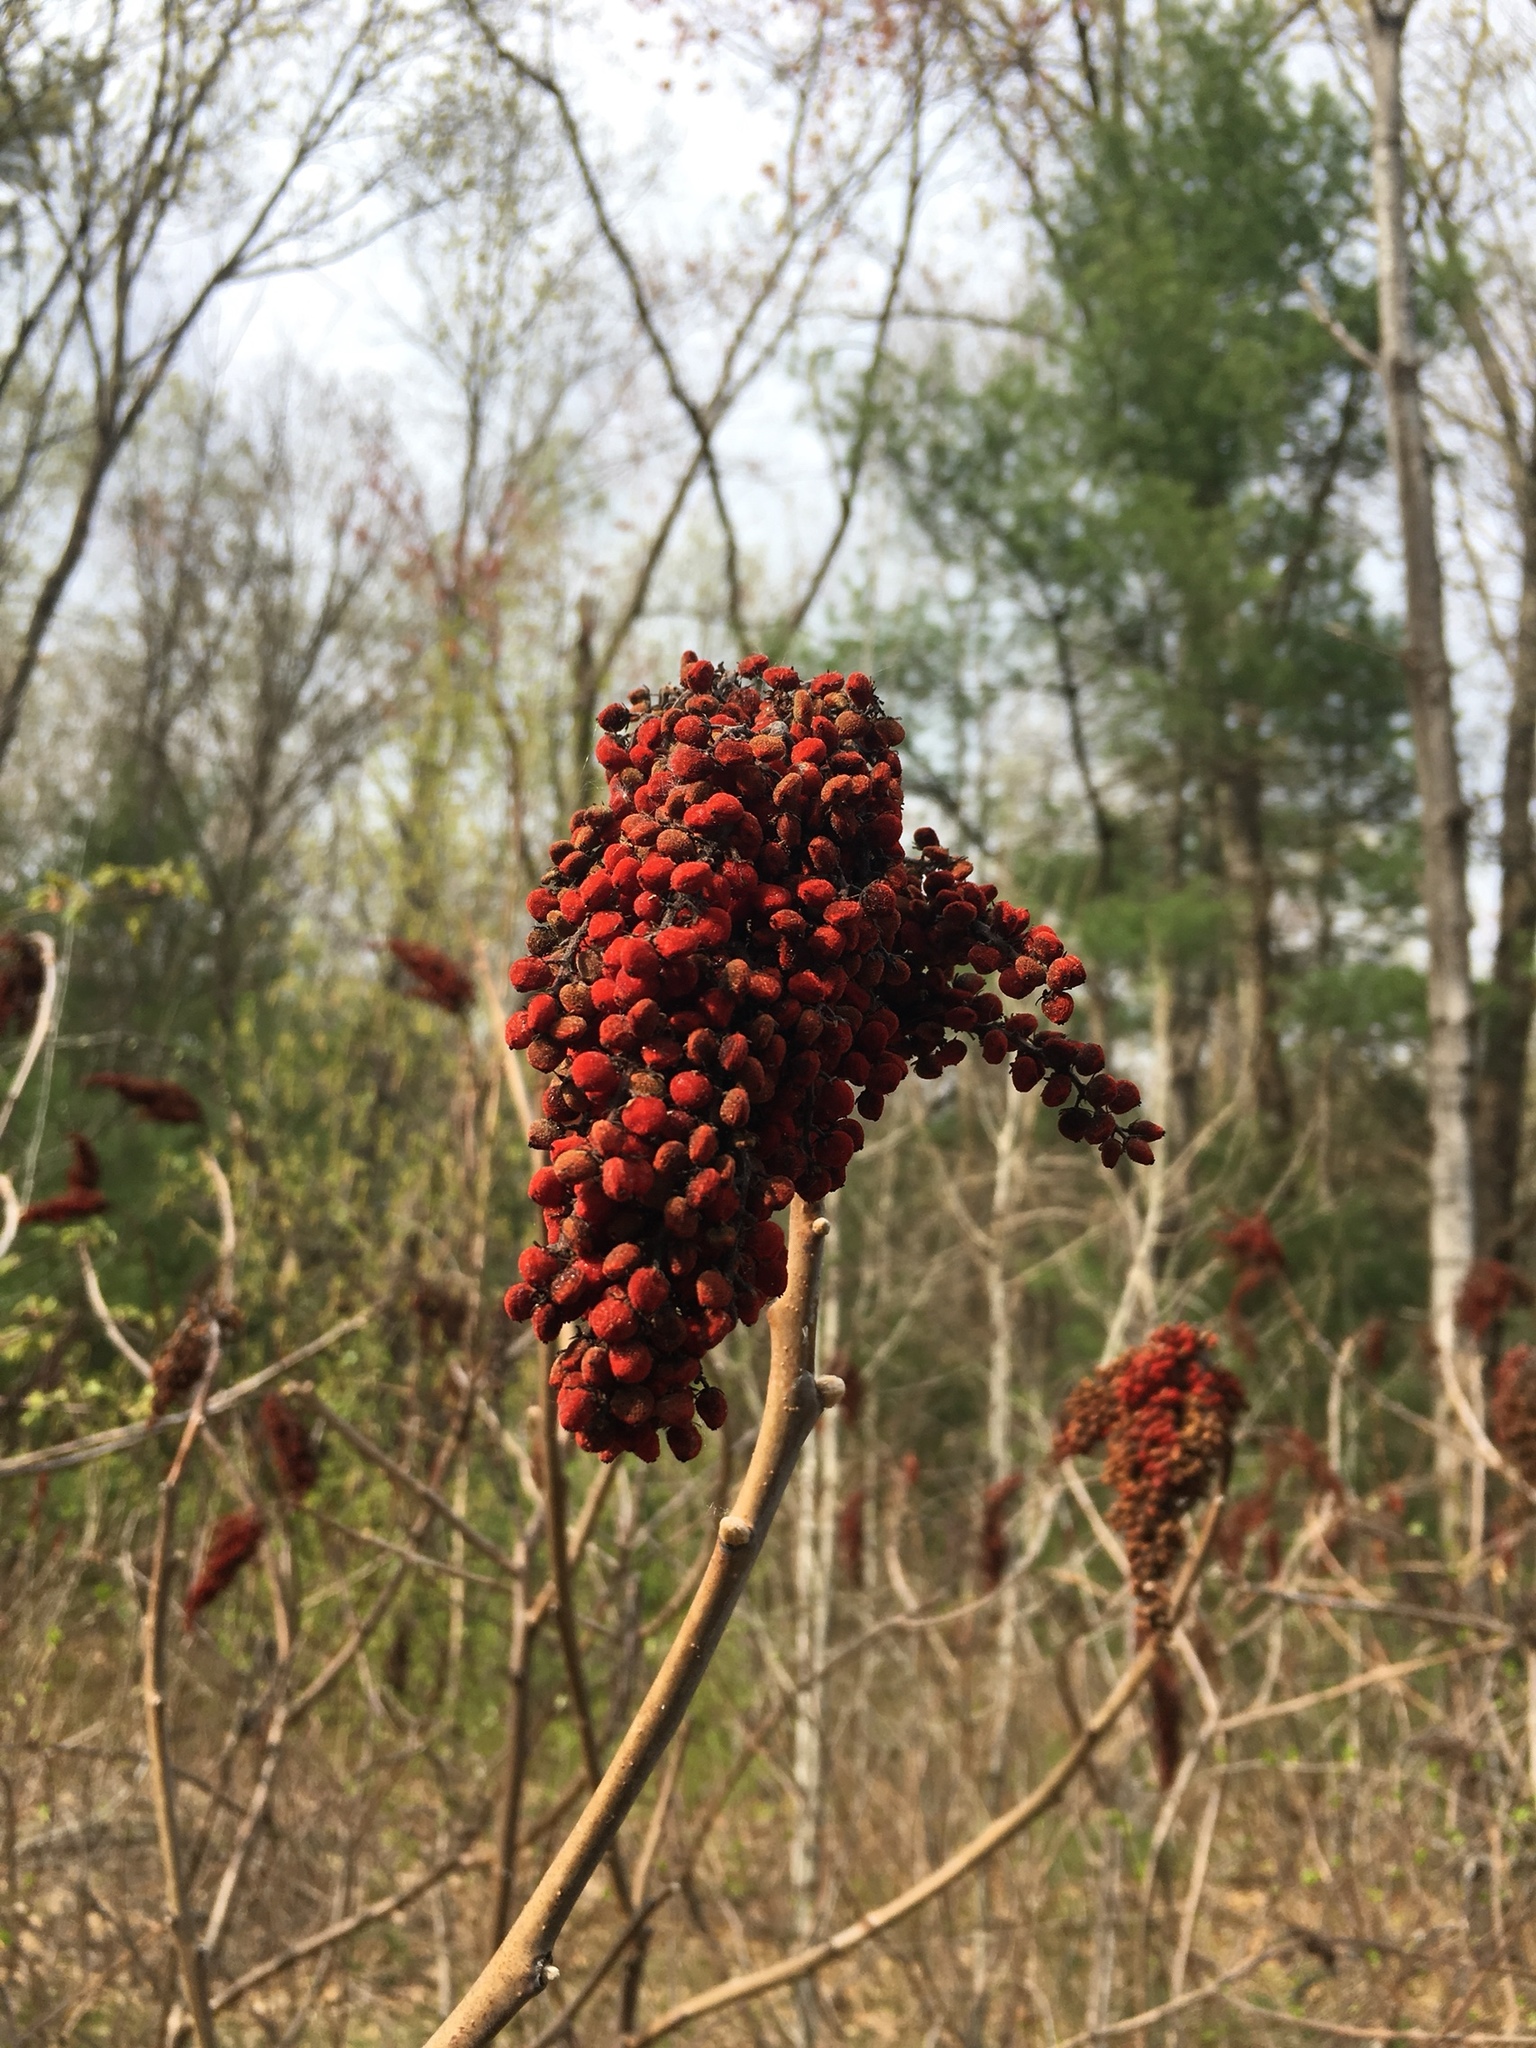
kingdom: Plantae
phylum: Tracheophyta
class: Magnoliopsida
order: Sapindales
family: Anacardiaceae
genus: Rhus
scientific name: Rhus glabra
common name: Scarlet sumac
